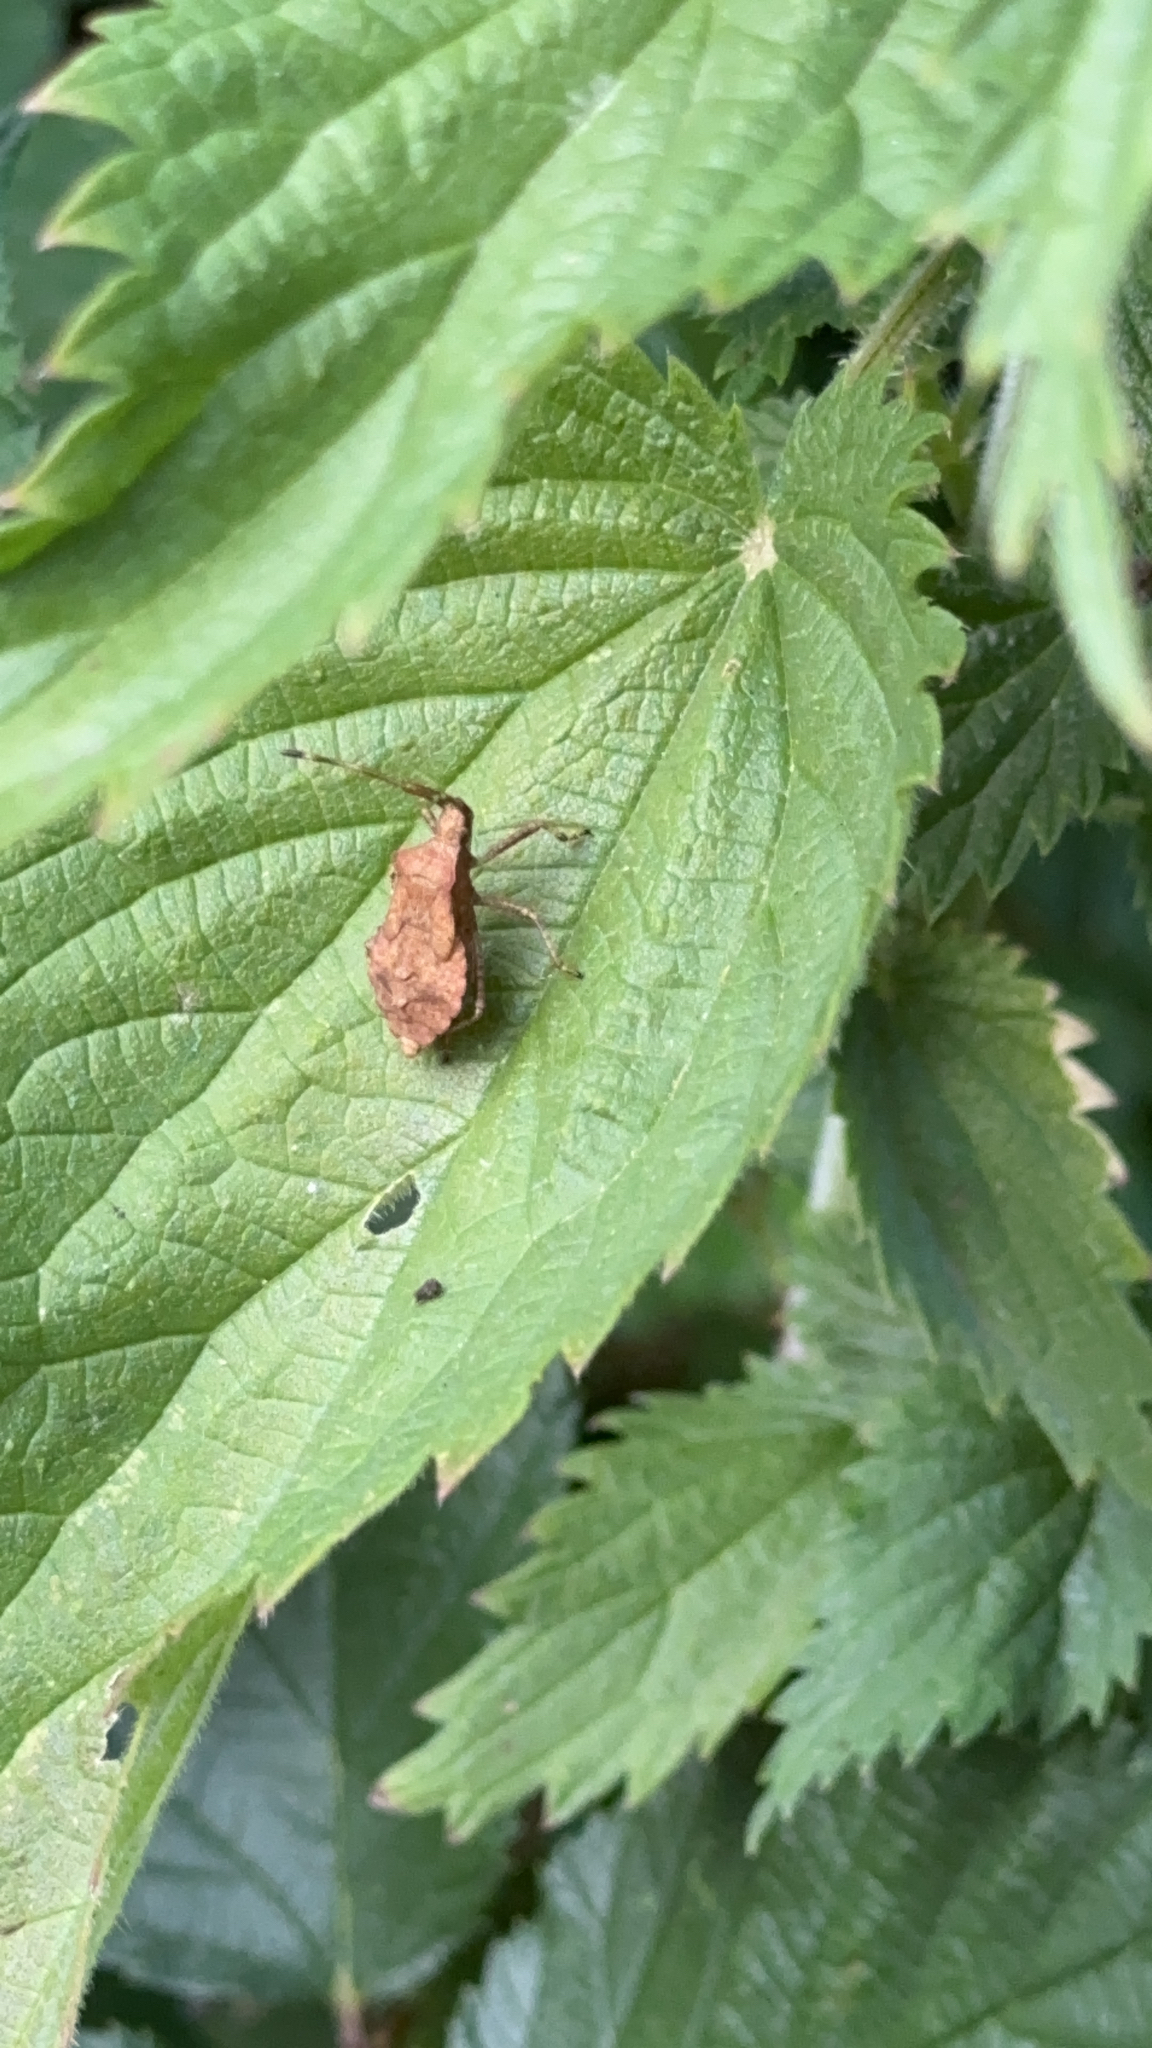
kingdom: Animalia
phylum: Arthropoda
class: Insecta
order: Hemiptera
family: Coreidae
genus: Coreus
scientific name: Coreus marginatus
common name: Dock bug
